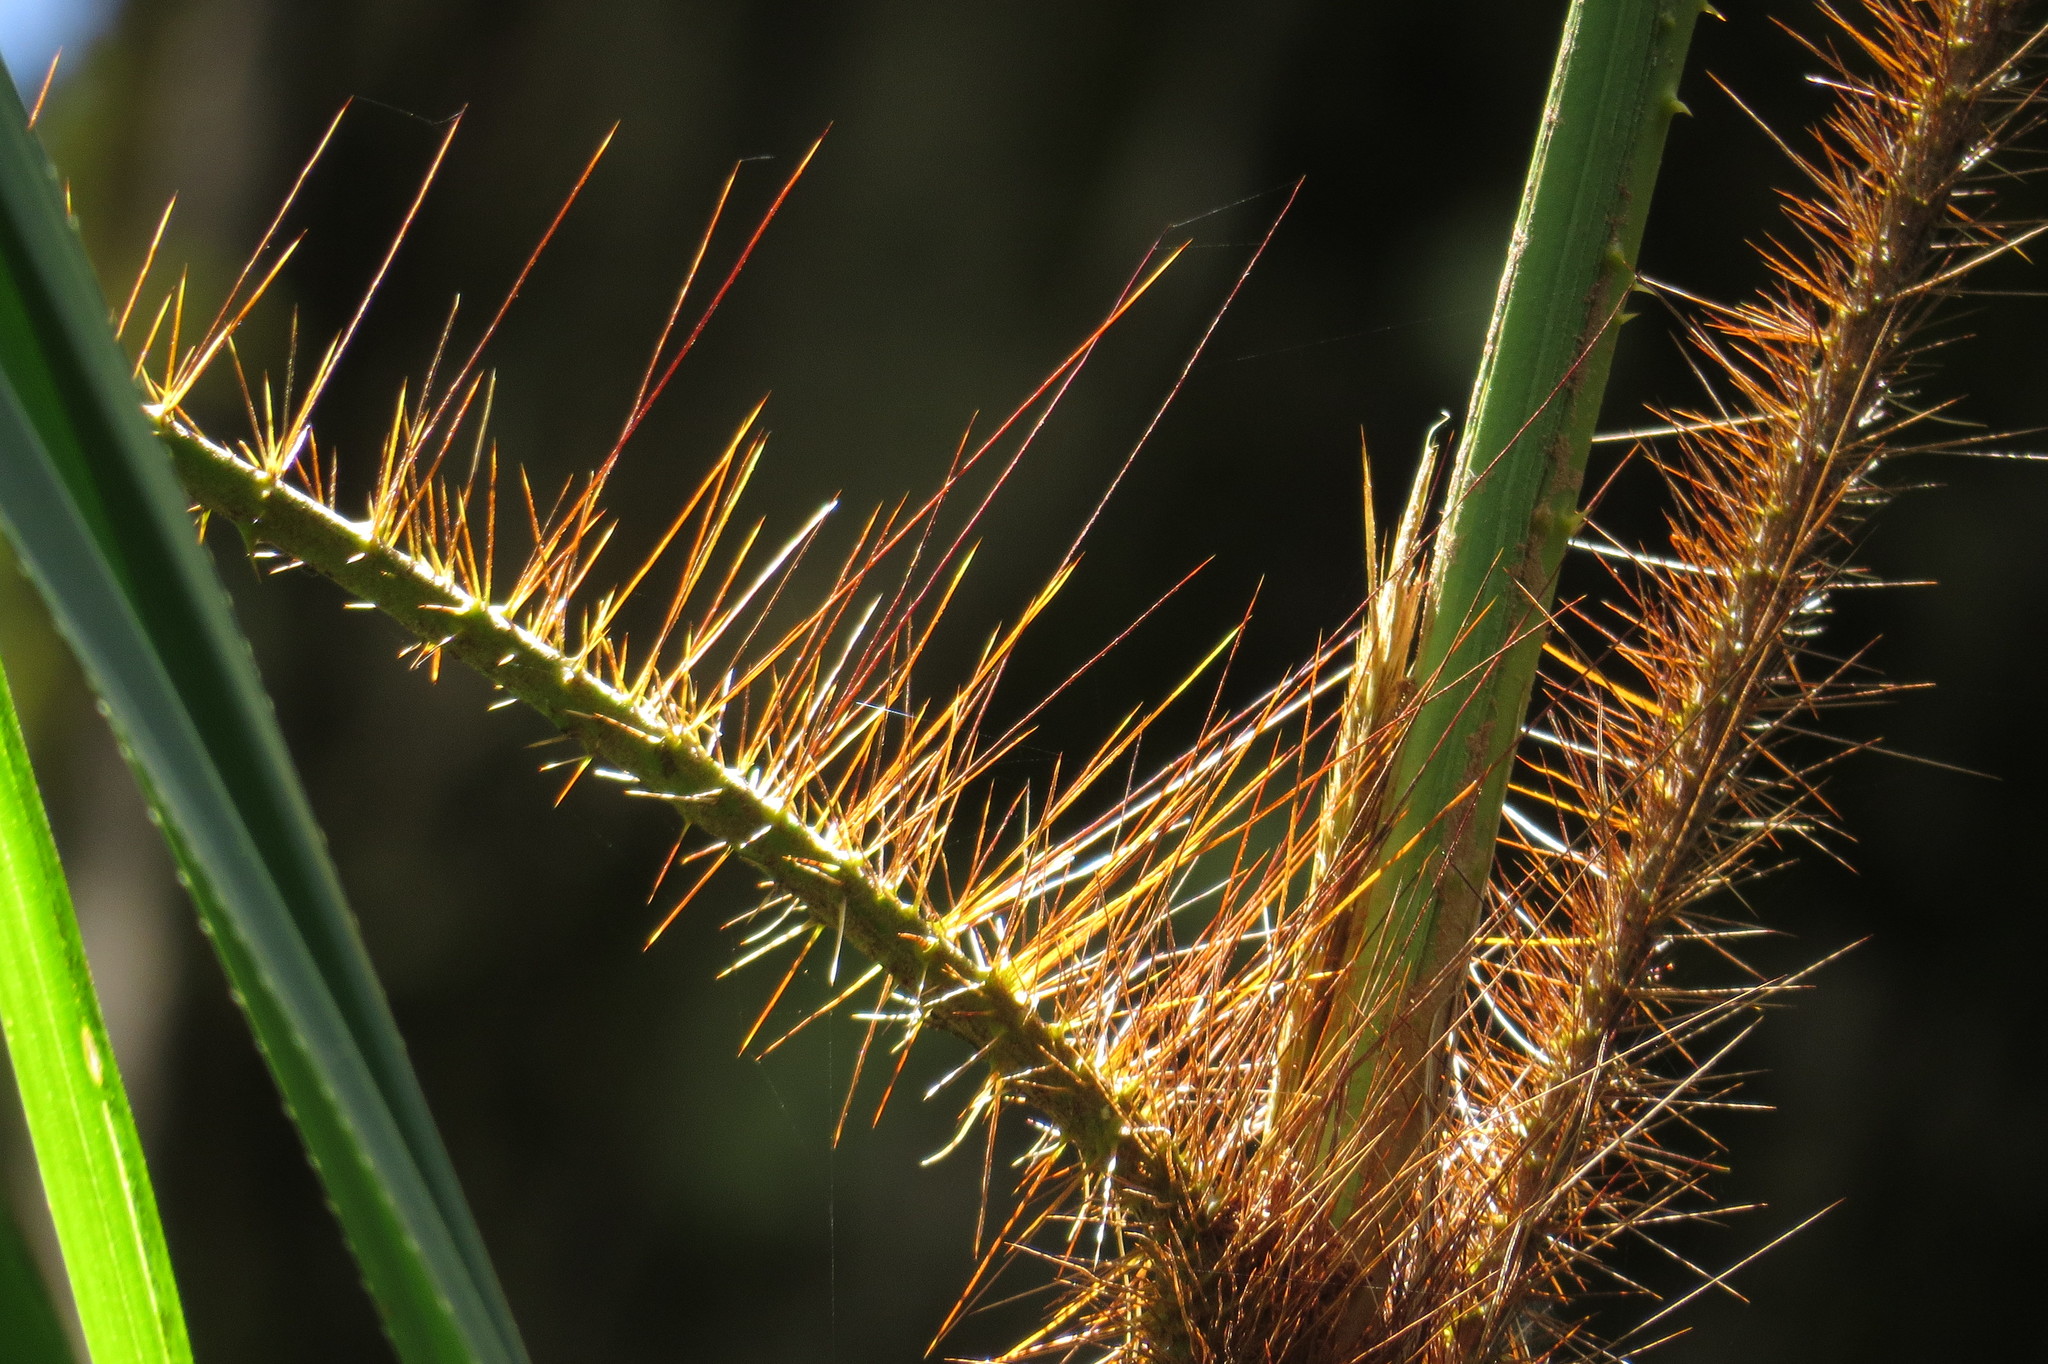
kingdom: Plantae
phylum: Tracheophyta
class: Liliopsida
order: Arecales
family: Arecaceae
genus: Calamus
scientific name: Calamus australis
